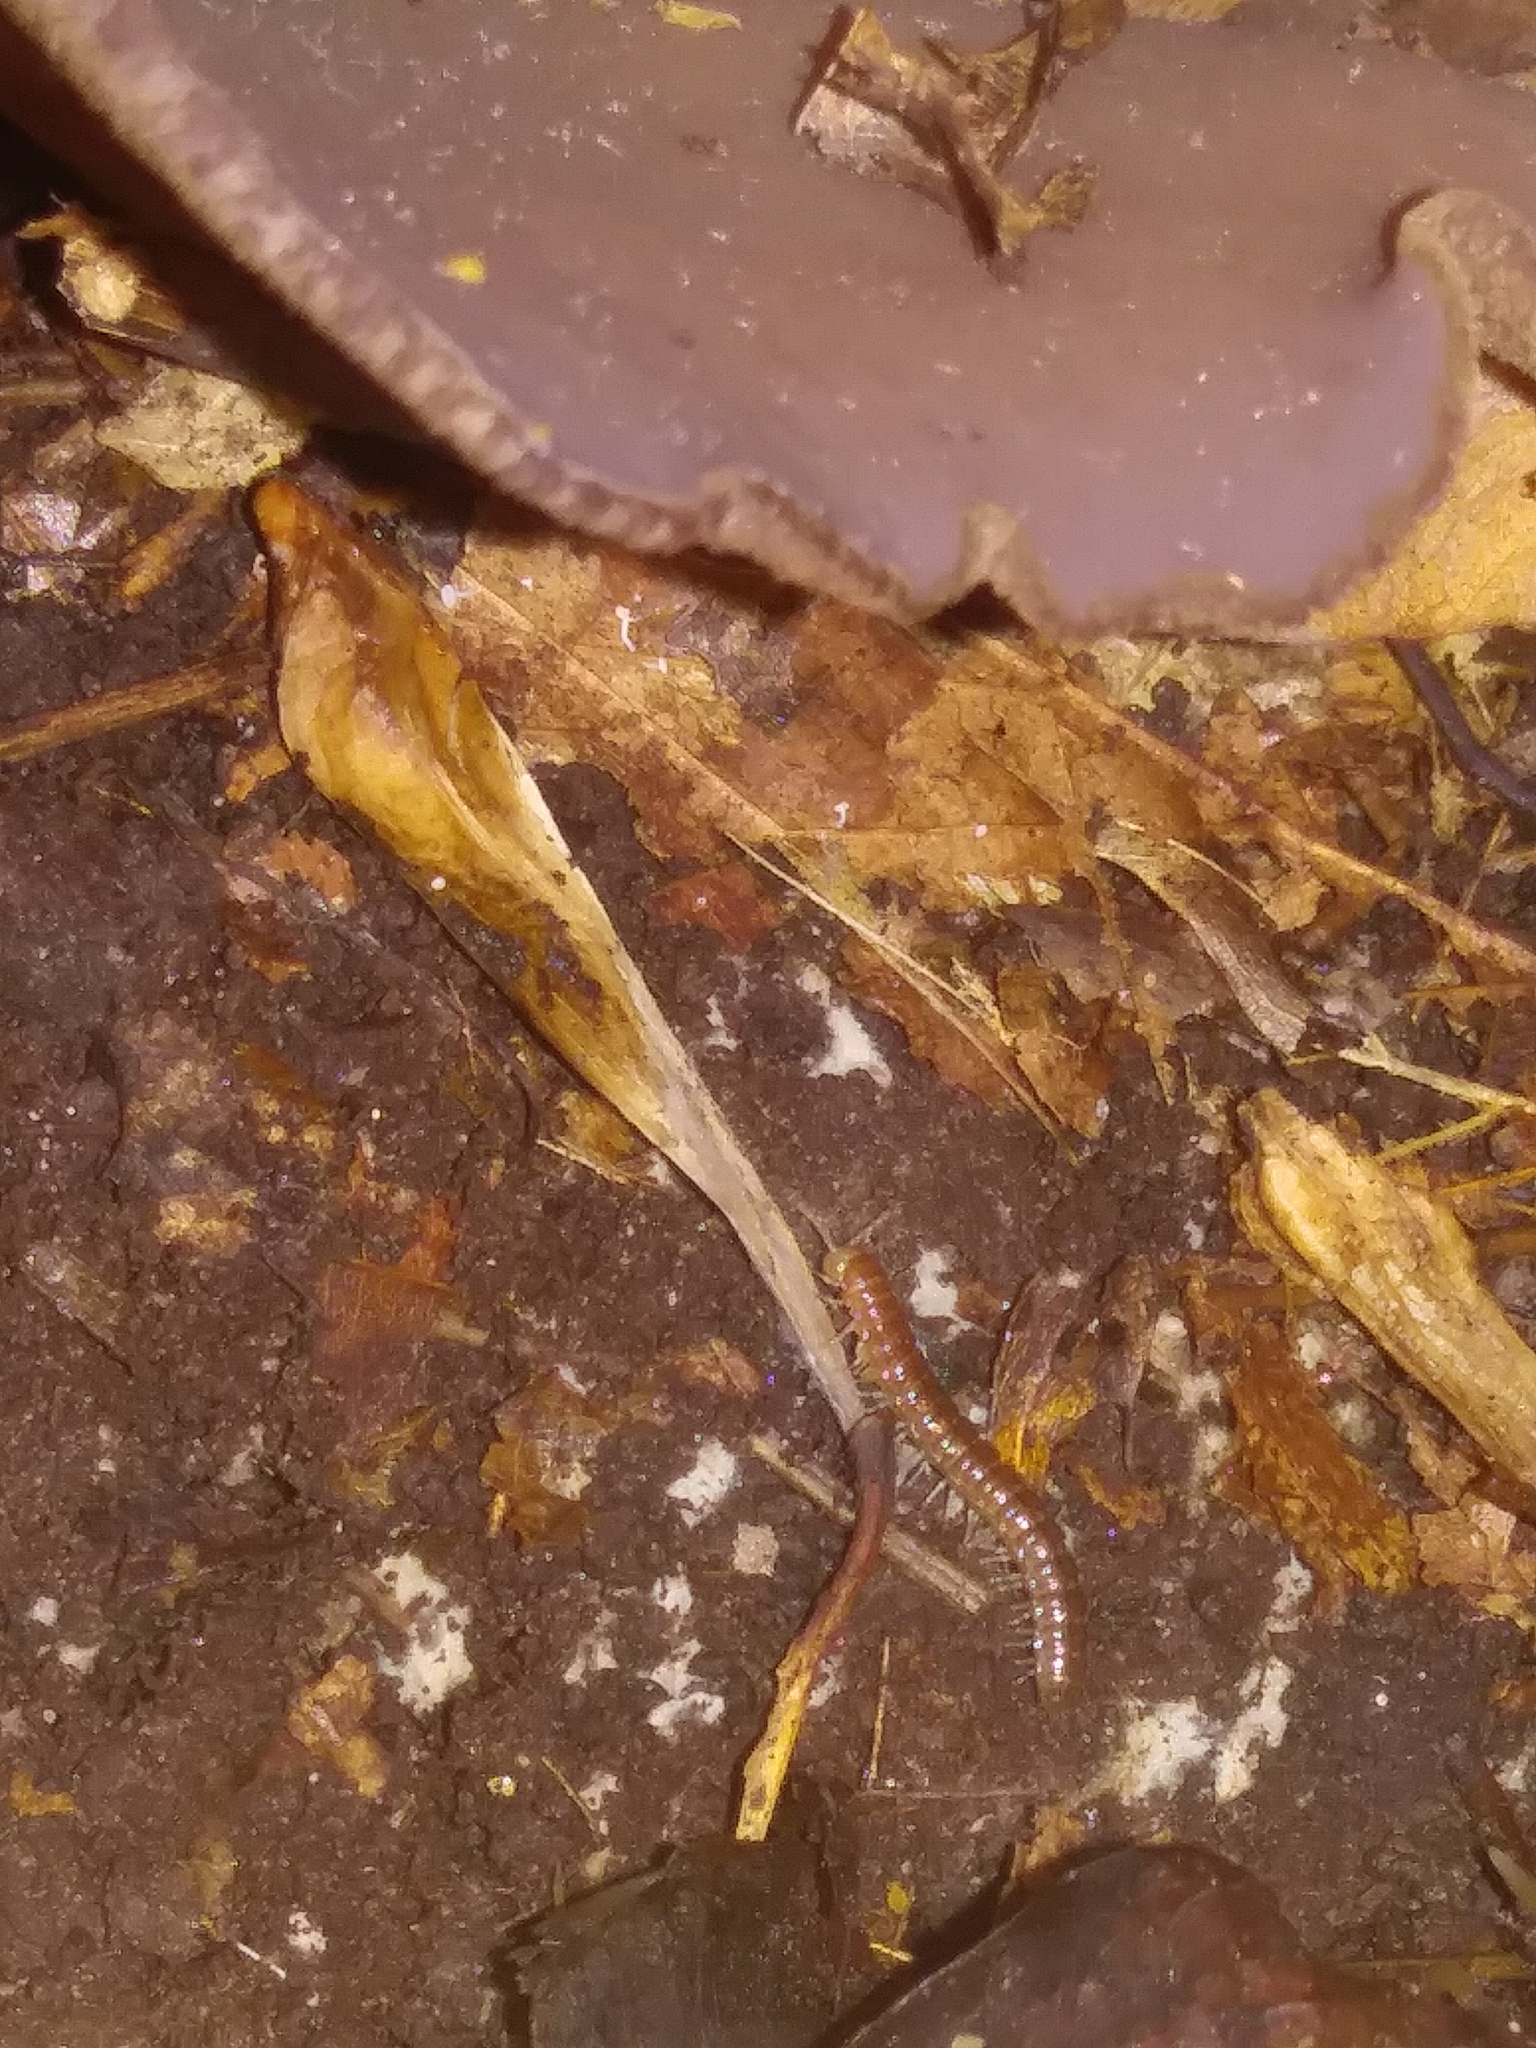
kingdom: Fungi
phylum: Ascomycota
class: Pezizomycetes
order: Pezizales
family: Pezizaceae
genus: Phylloscypha
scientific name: Phylloscypha phyllogena
